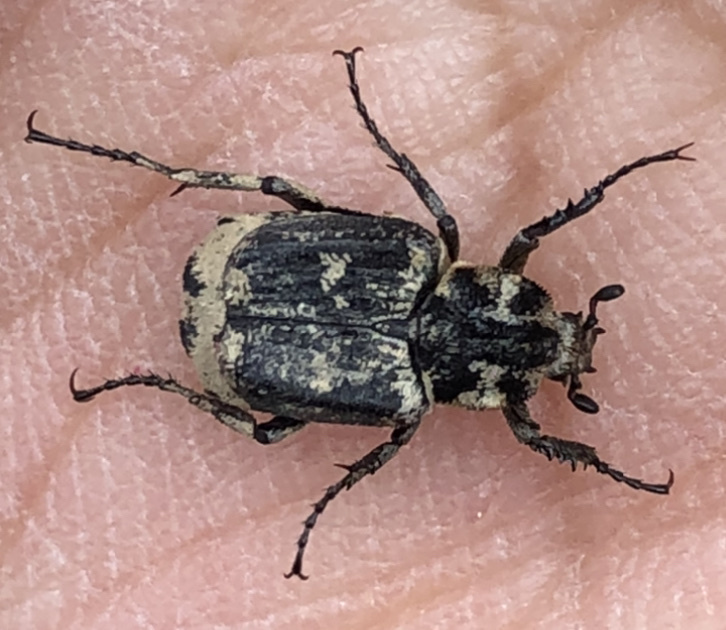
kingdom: Animalia
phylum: Arthropoda
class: Insecta
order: Coleoptera
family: Scarabaeidae
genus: Valgus
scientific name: Valgus hemipterus
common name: Bug flower chafer
